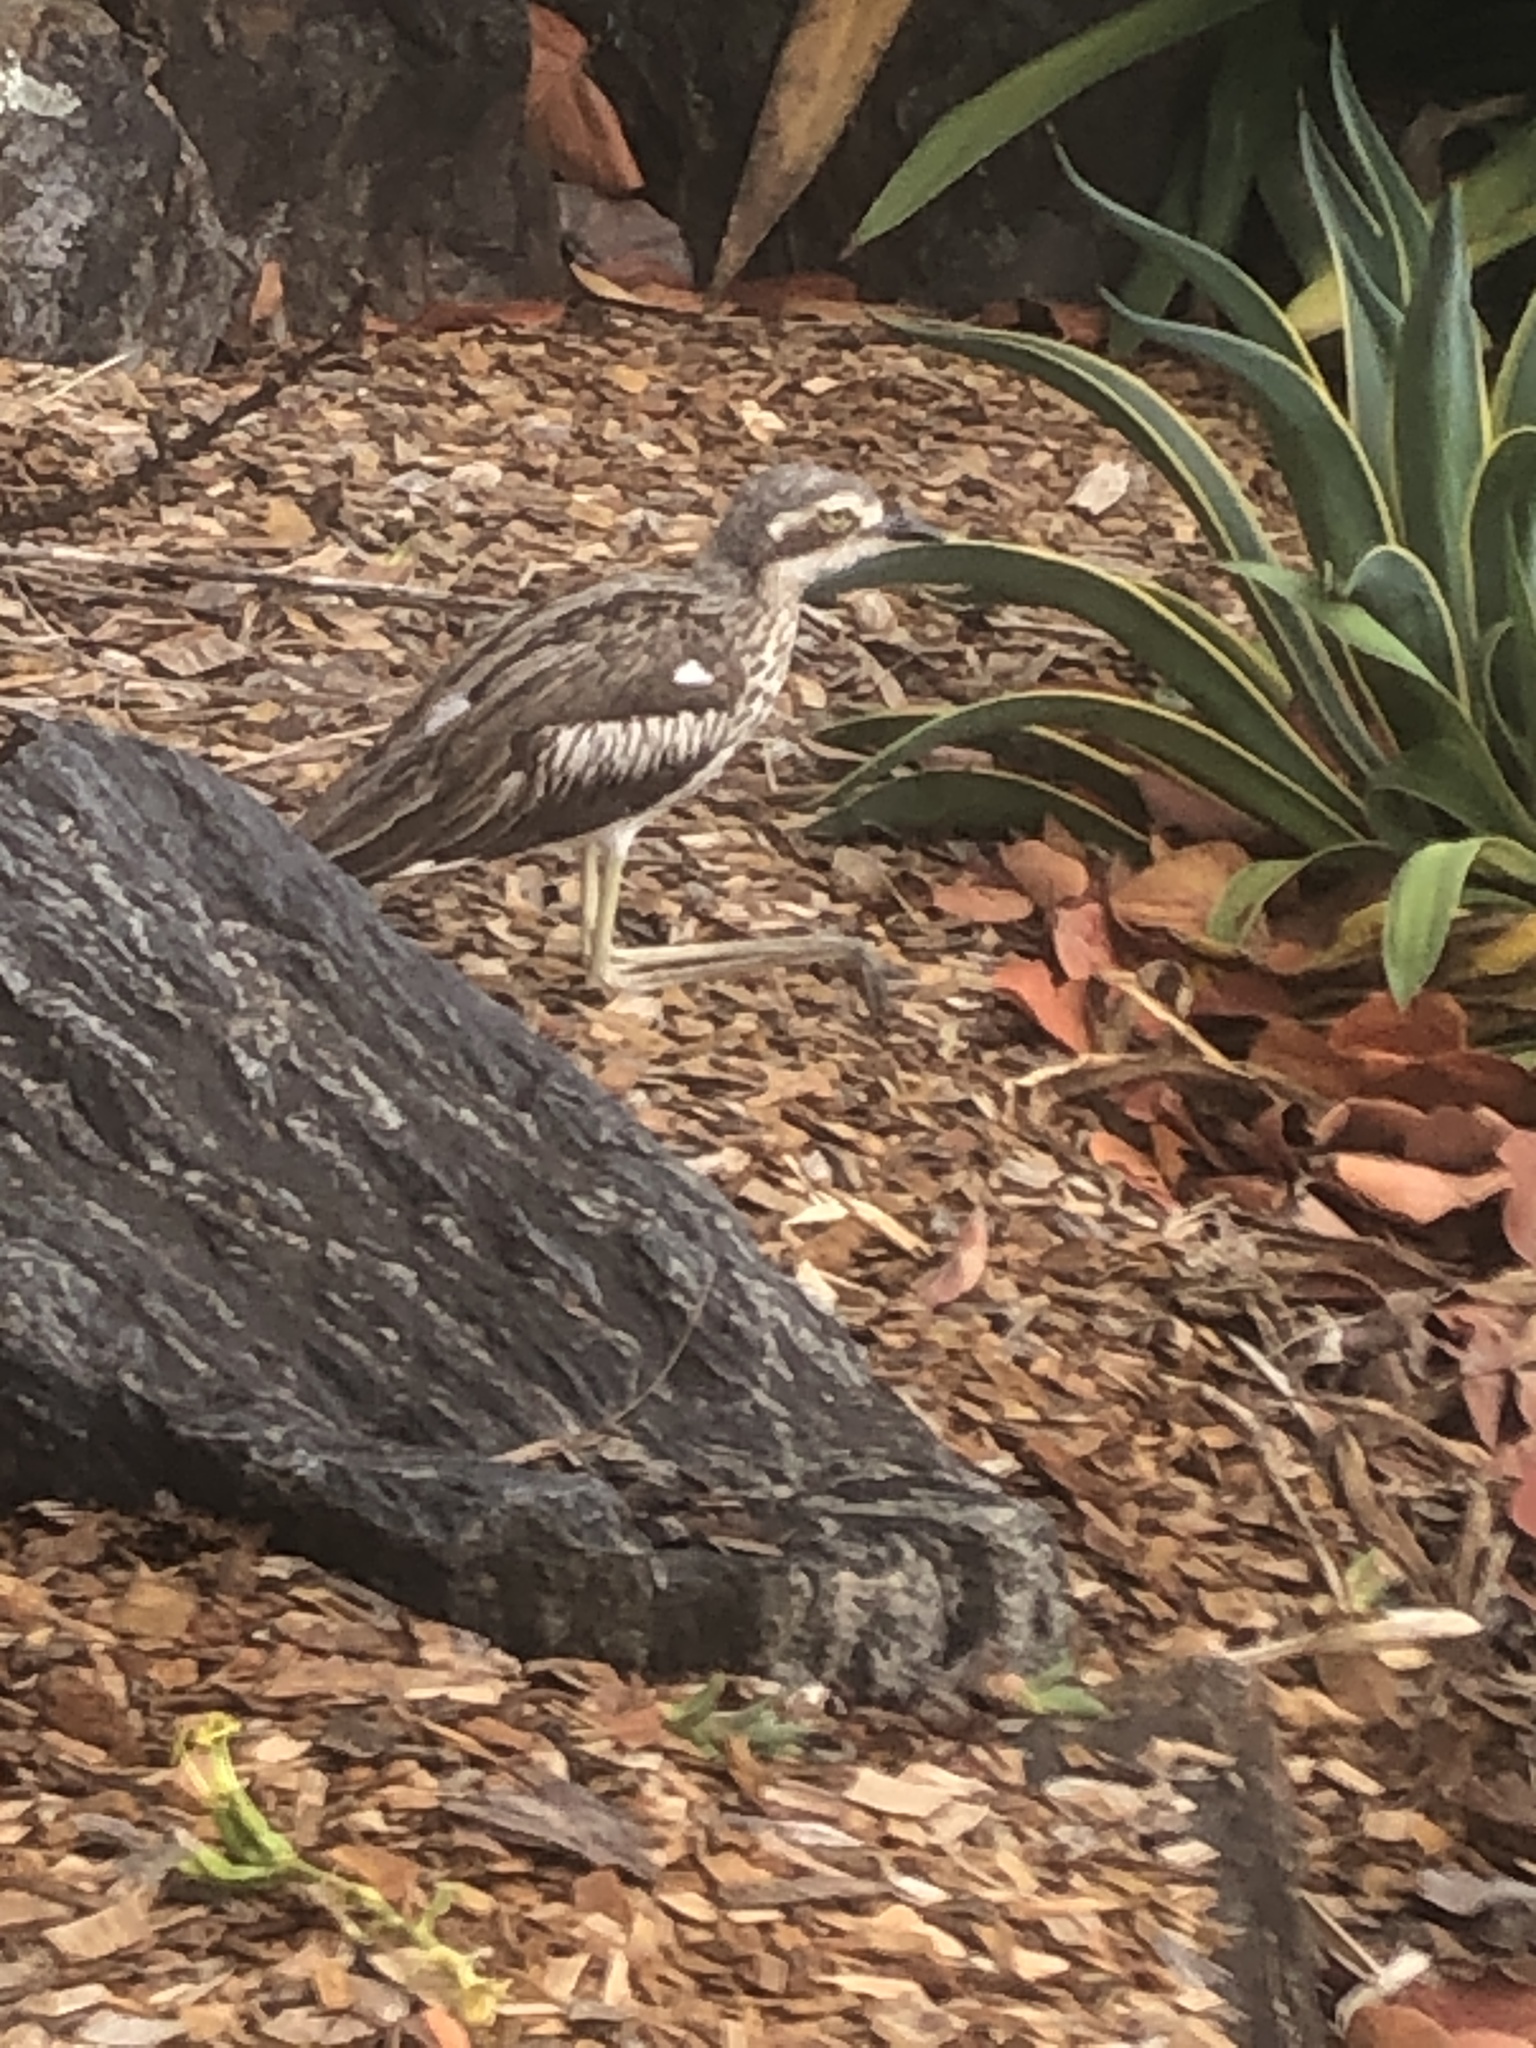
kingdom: Animalia
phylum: Chordata
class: Aves
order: Charadriiformes
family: Burhinidae
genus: Burhinus
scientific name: Burhinus grallarius
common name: Bush stone-curlew
